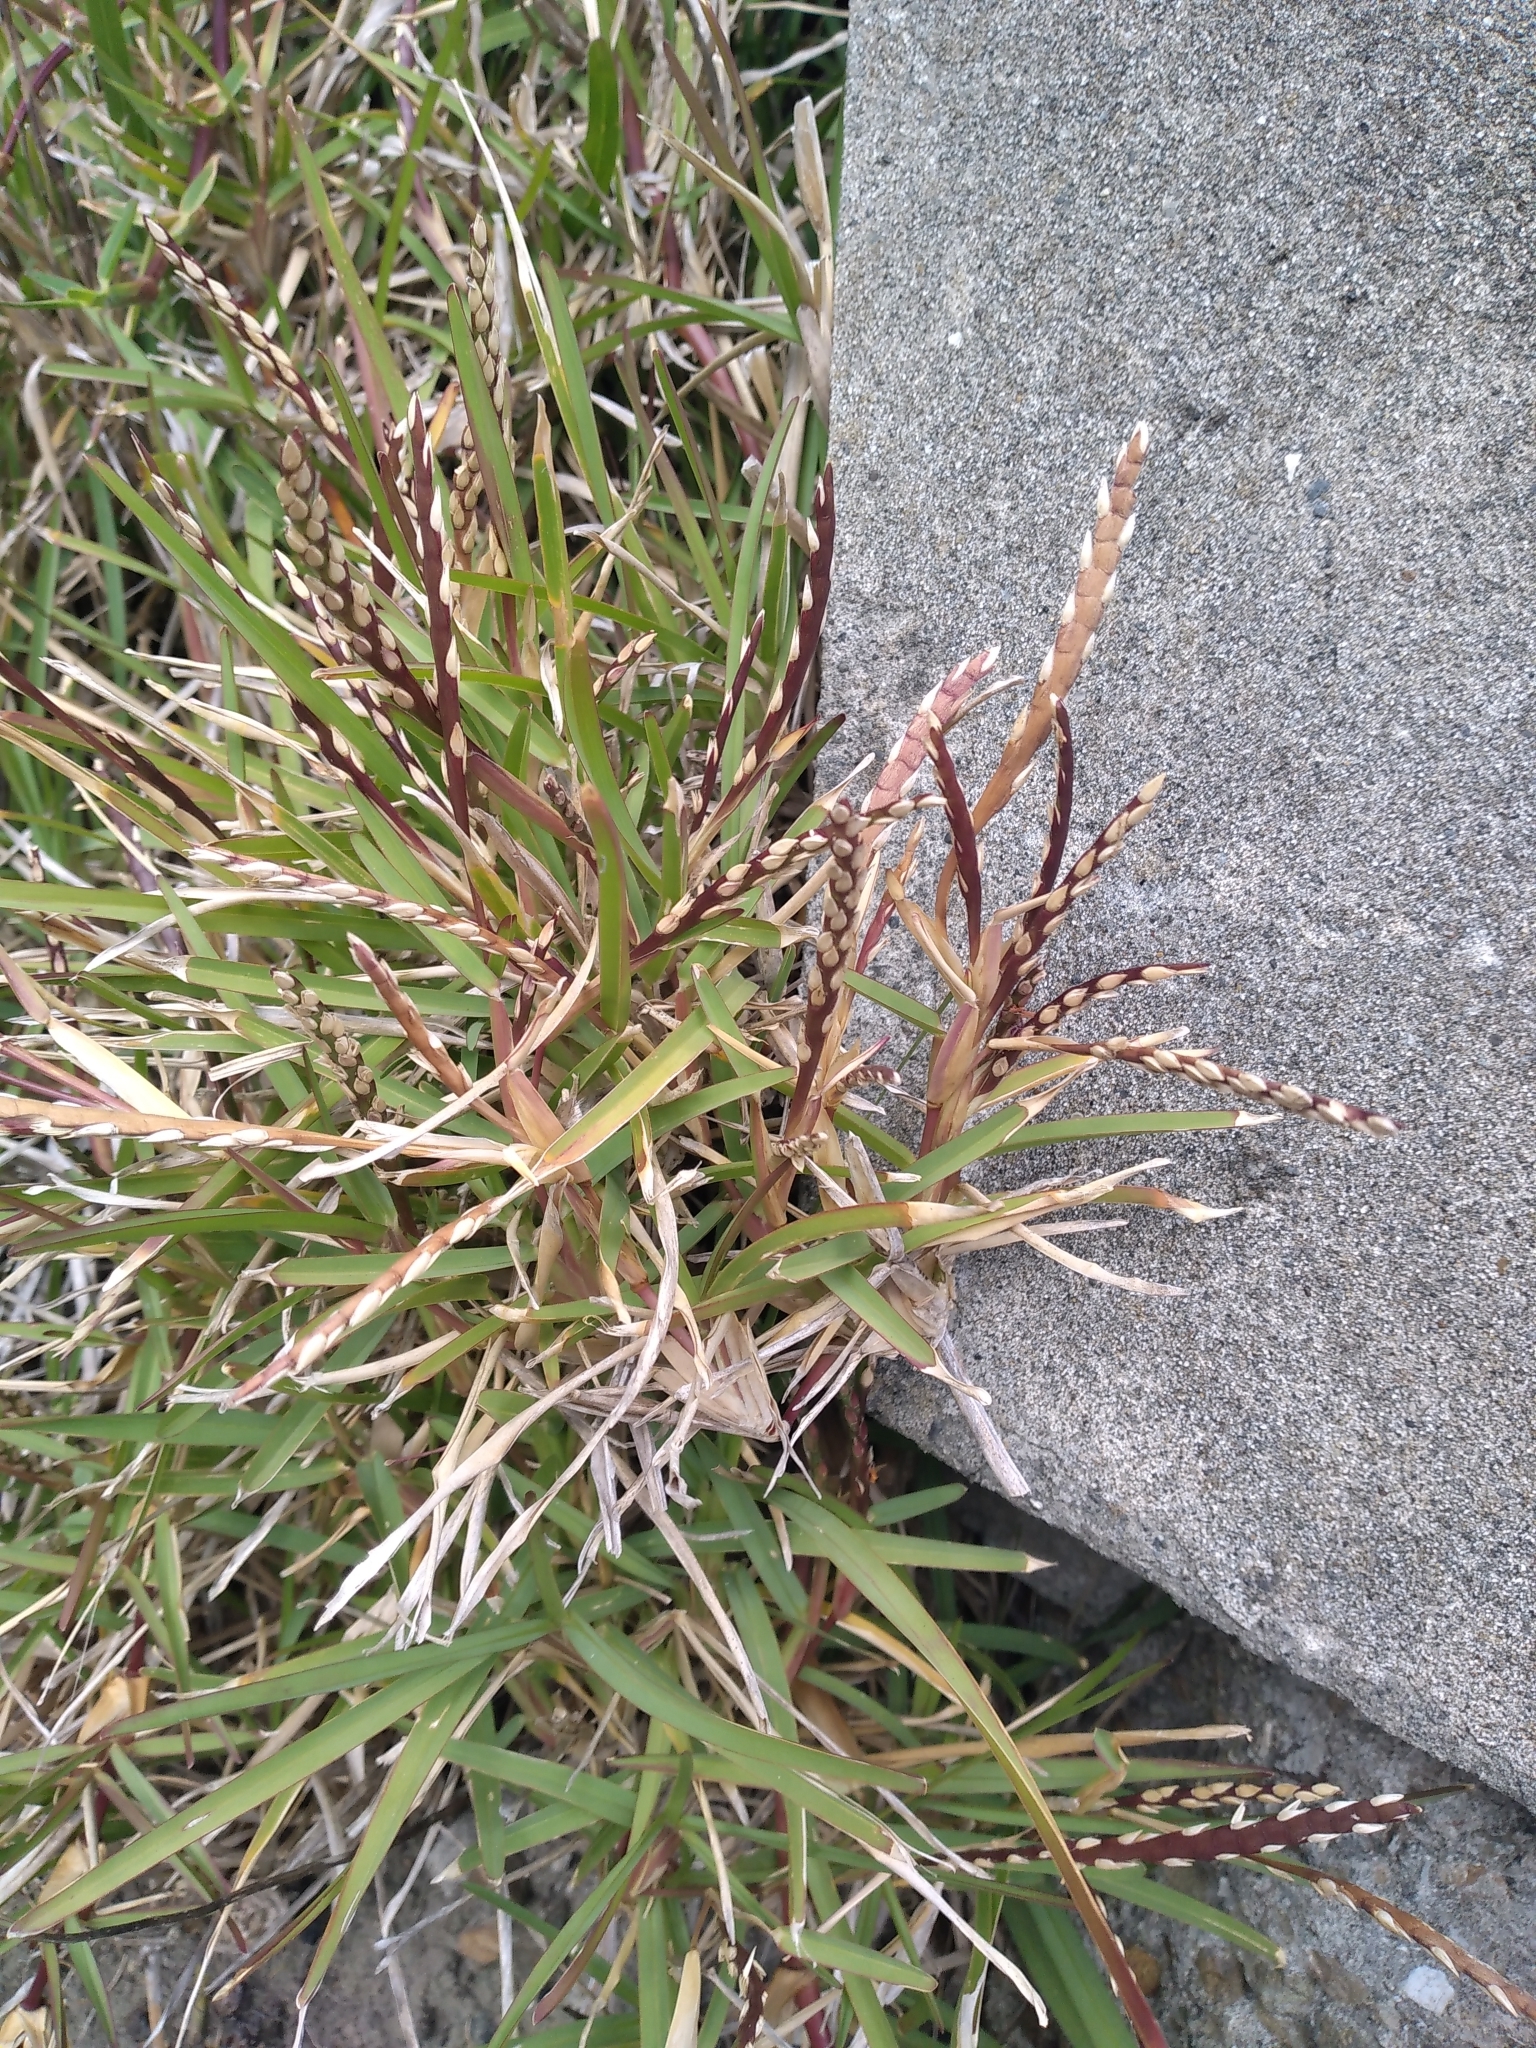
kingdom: Plantae
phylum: Tracheophyta
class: Liliopsida
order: Poales
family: Poaceae
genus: Stenotaphrum
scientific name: Stenotaphrum secundatum
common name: St. augustine grass
